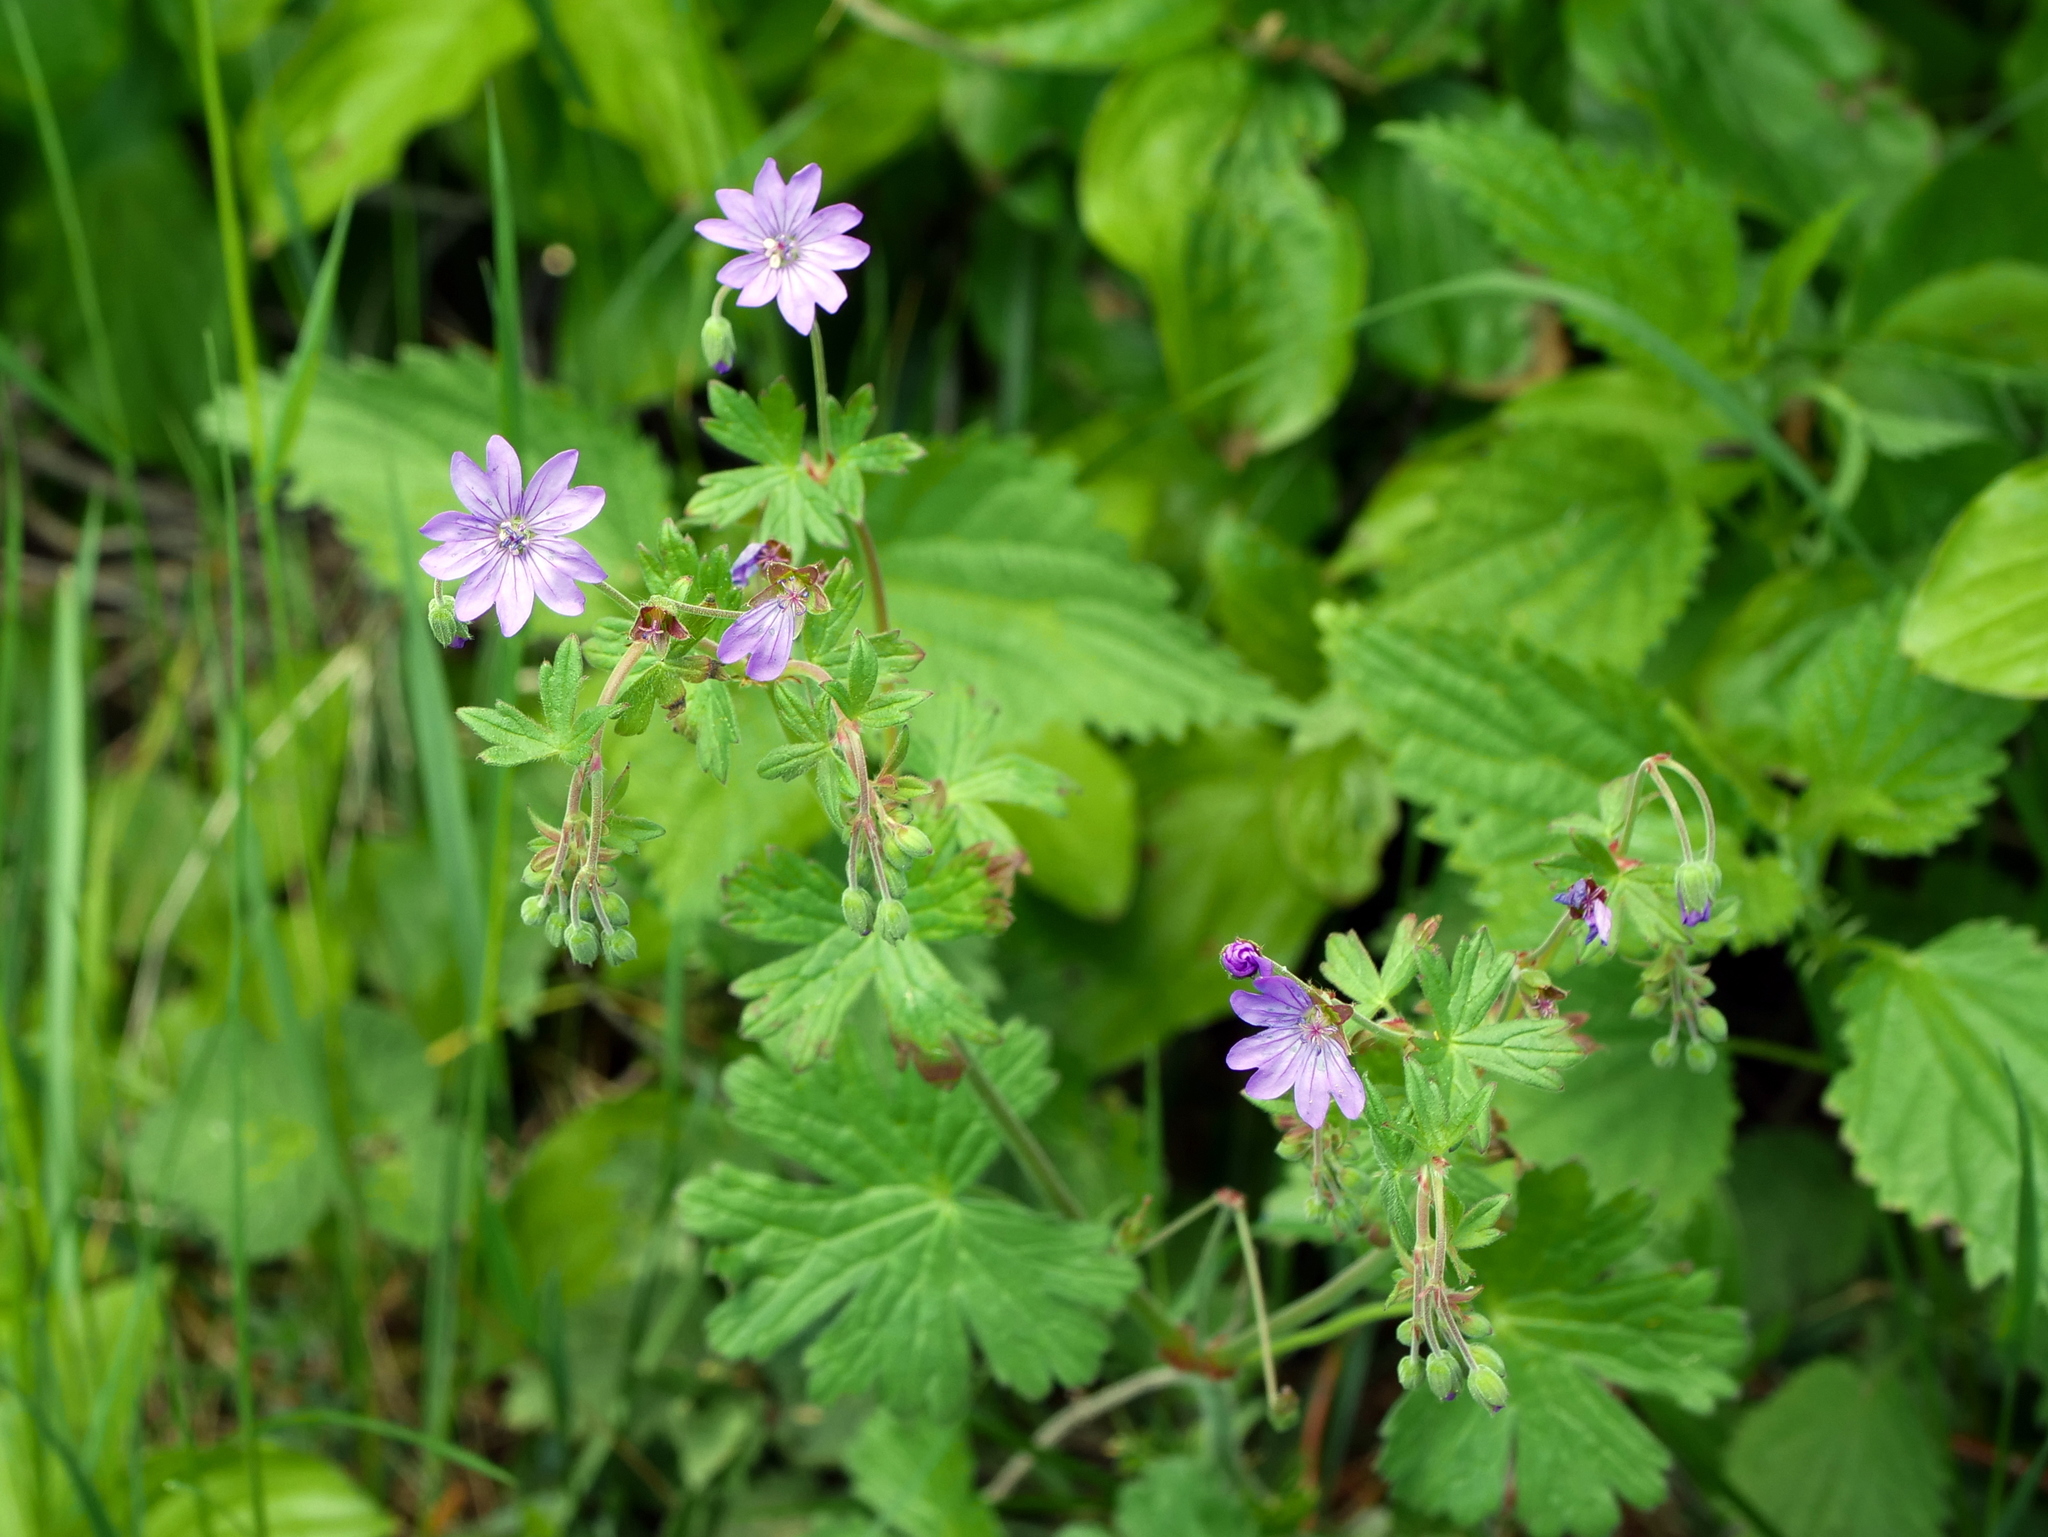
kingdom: Plantae
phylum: Tracheophyta
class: Magnoliopsida
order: Geraniales
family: Geraniaceae
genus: Geranium
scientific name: Geranium pyrenaicum
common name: Hedgerow crane's-bill
